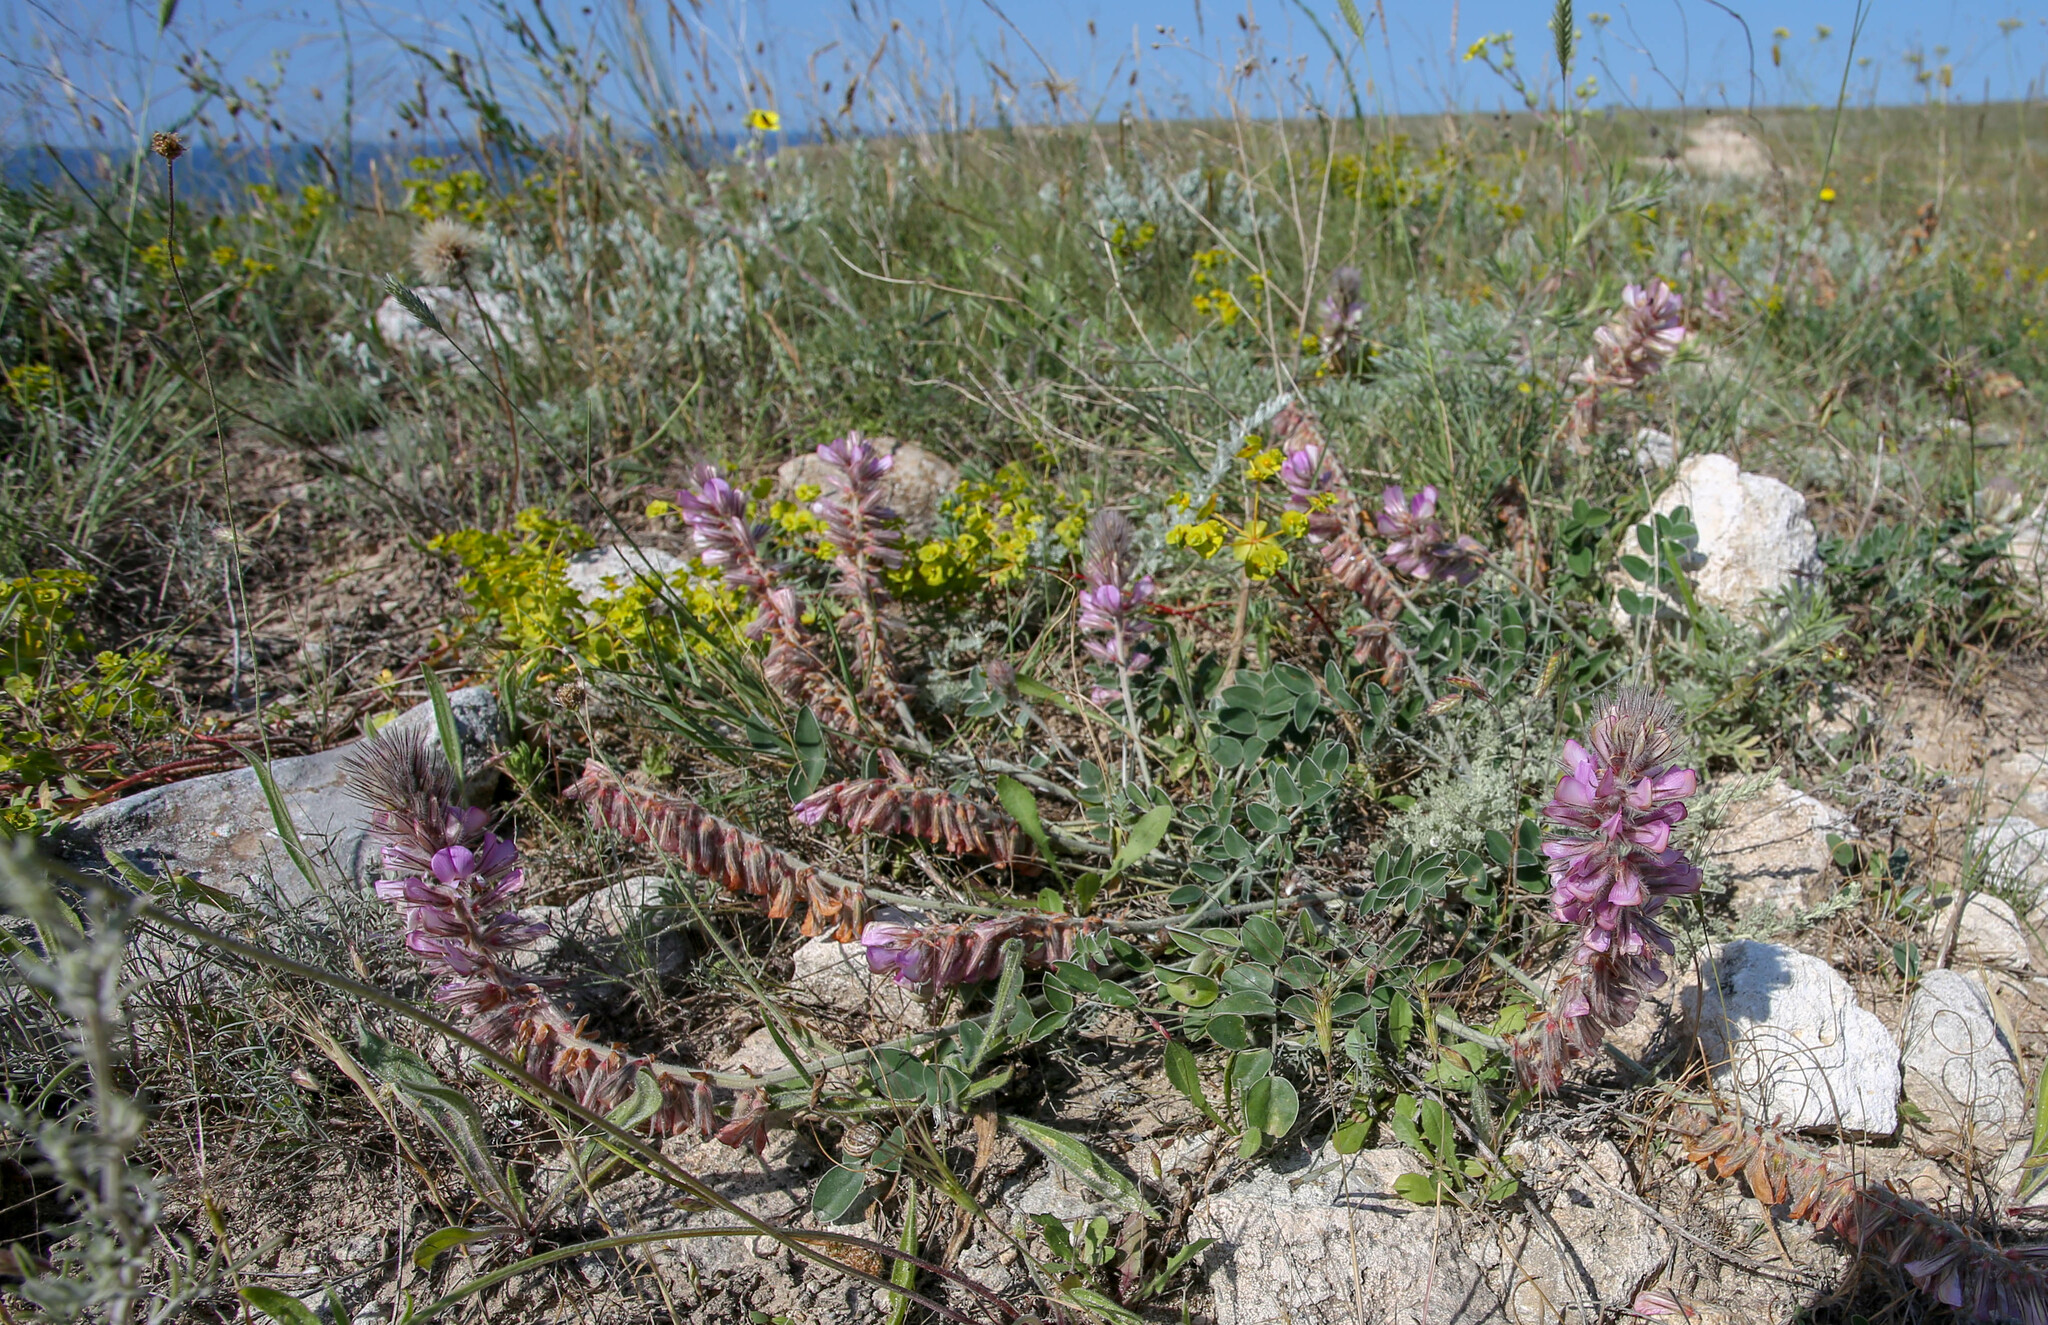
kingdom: Plantae
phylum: Tracheophyta
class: Magnoliopsida
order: Fabales
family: Fabaceae
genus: Hedysarum
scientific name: Hedysarum candidum
